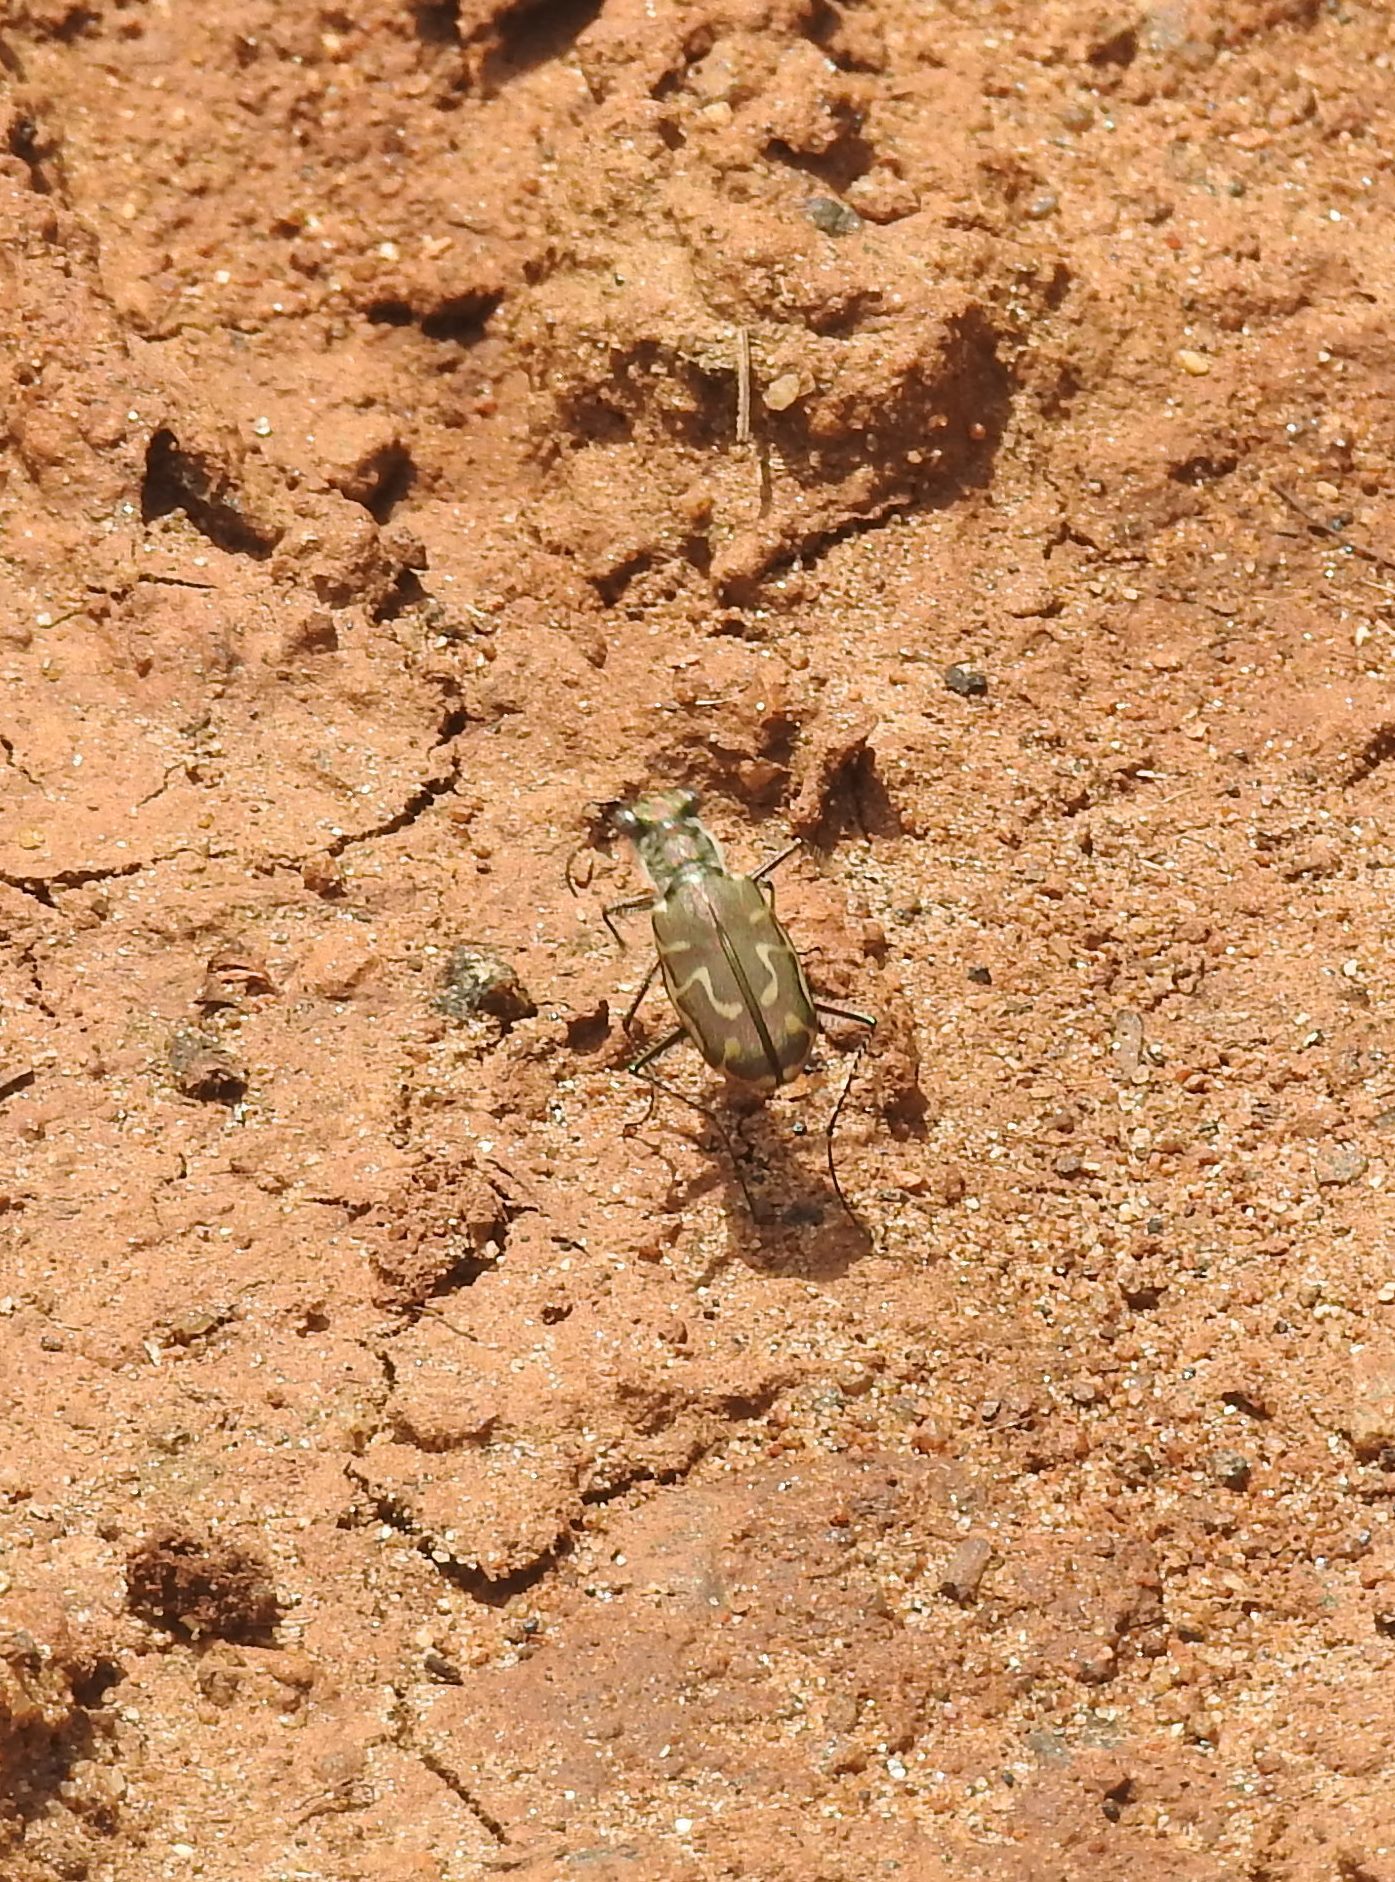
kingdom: Animalia
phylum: Arthropoda
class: Insecta
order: Coleoptera
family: Carabidae
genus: Cicindela
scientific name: Cicindela angulata
